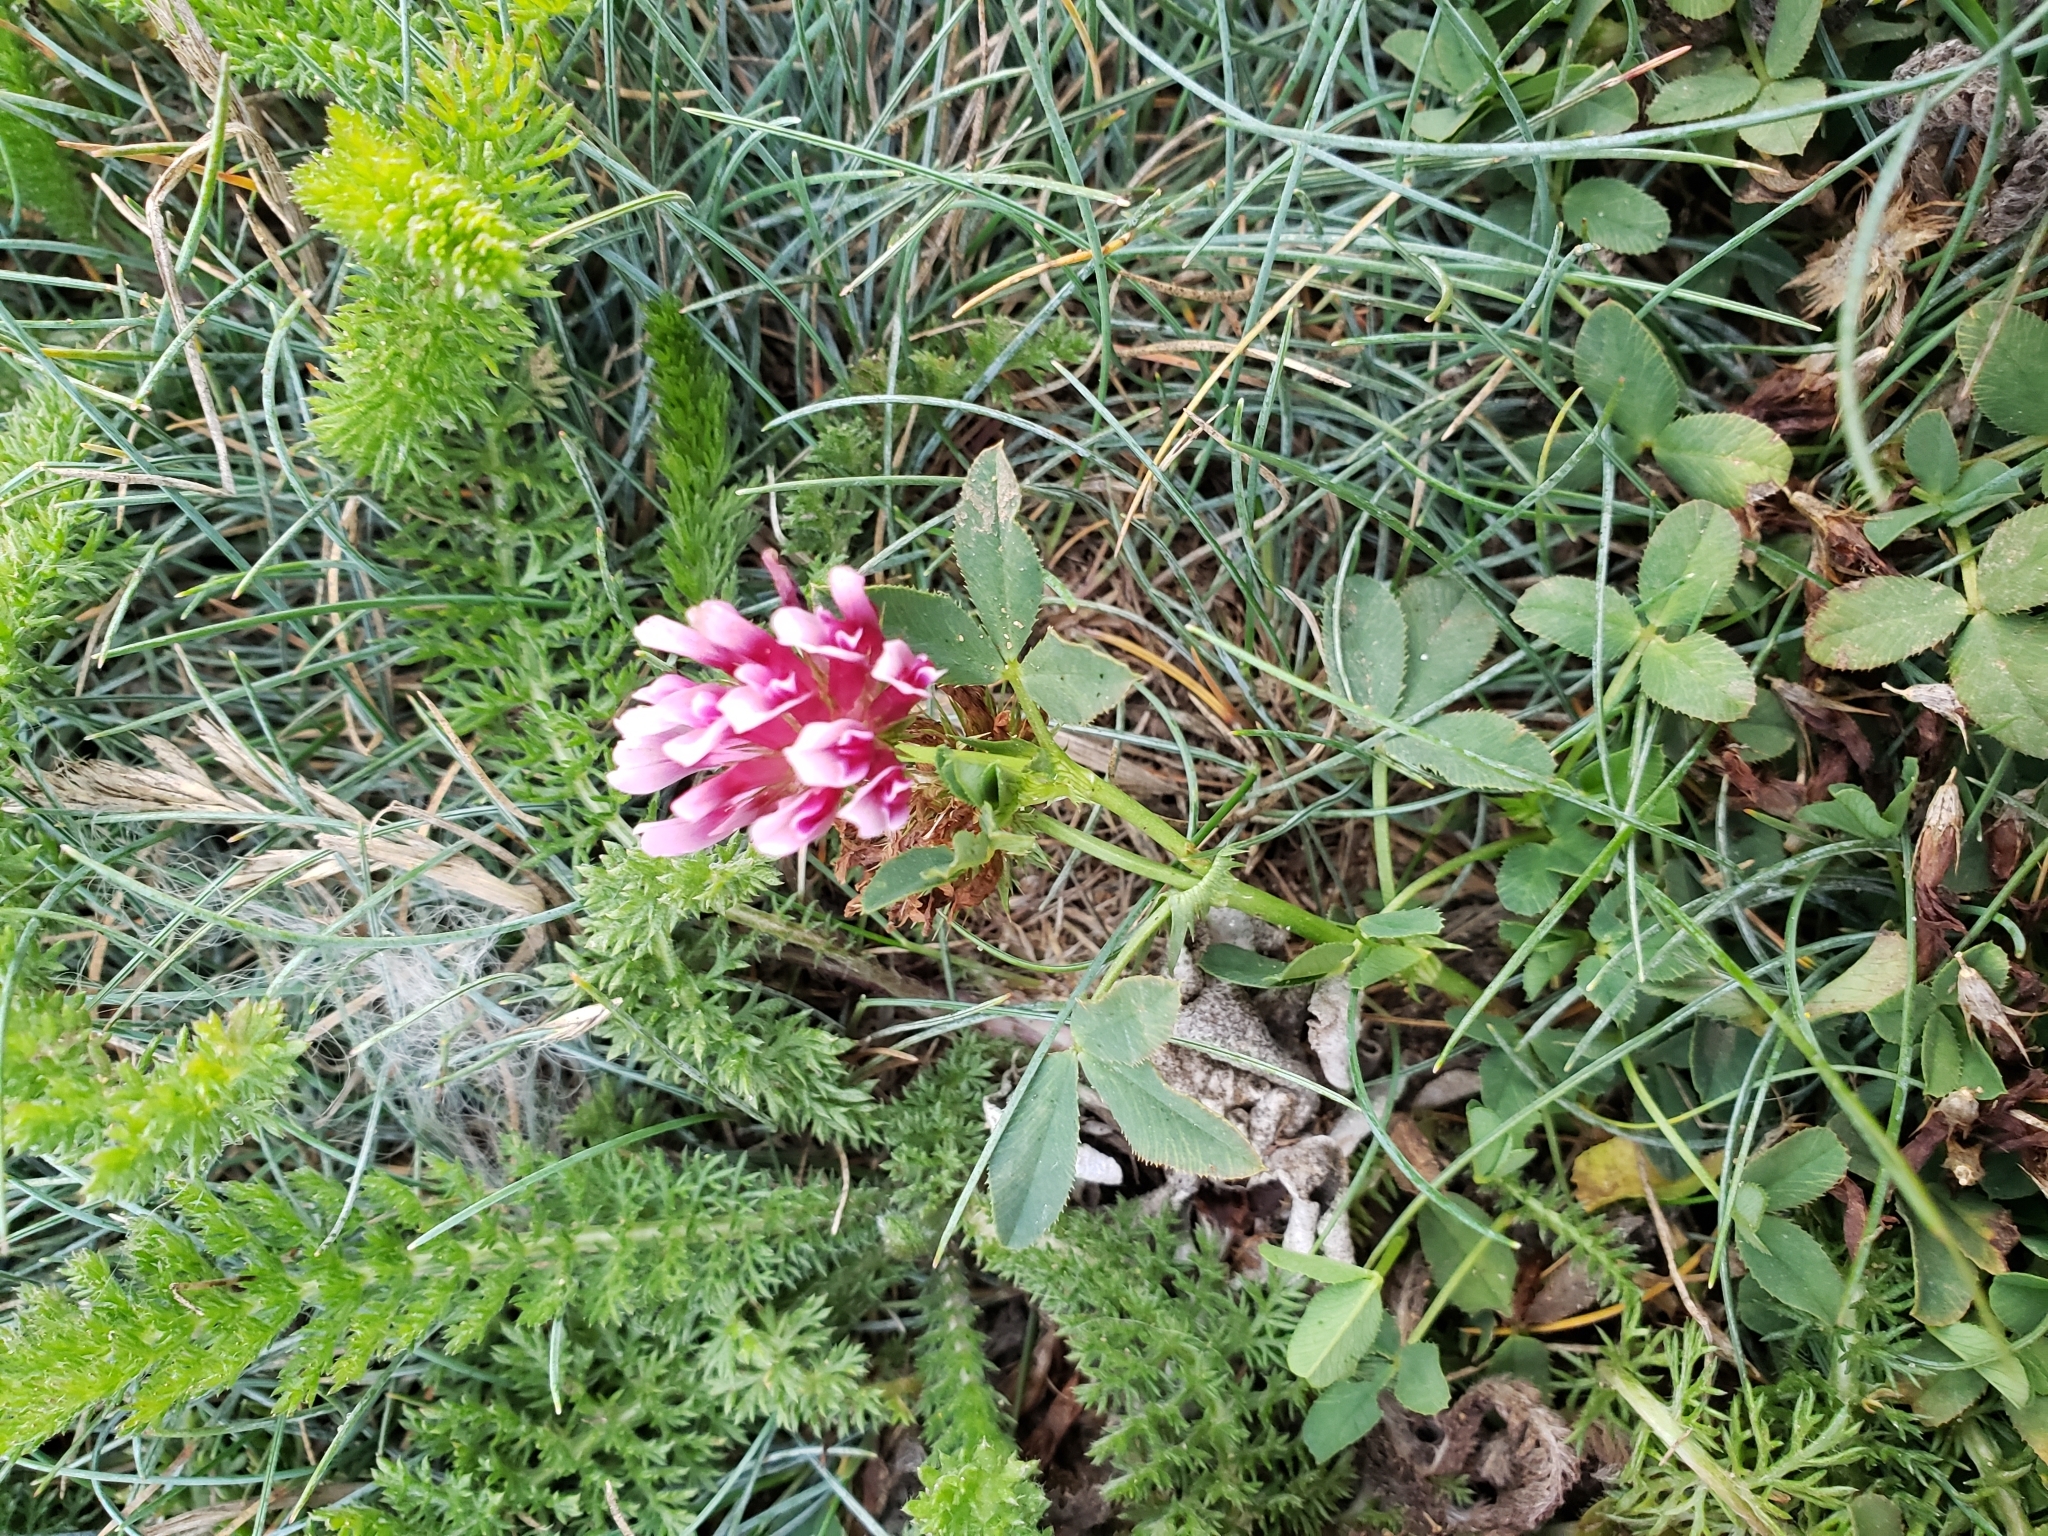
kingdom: Plantae
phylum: Tracheophyta
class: Magnoliopsida
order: Fabales
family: Fabaceae
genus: Trifolium
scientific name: Trifolium wormskioldii
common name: Springbank clover
